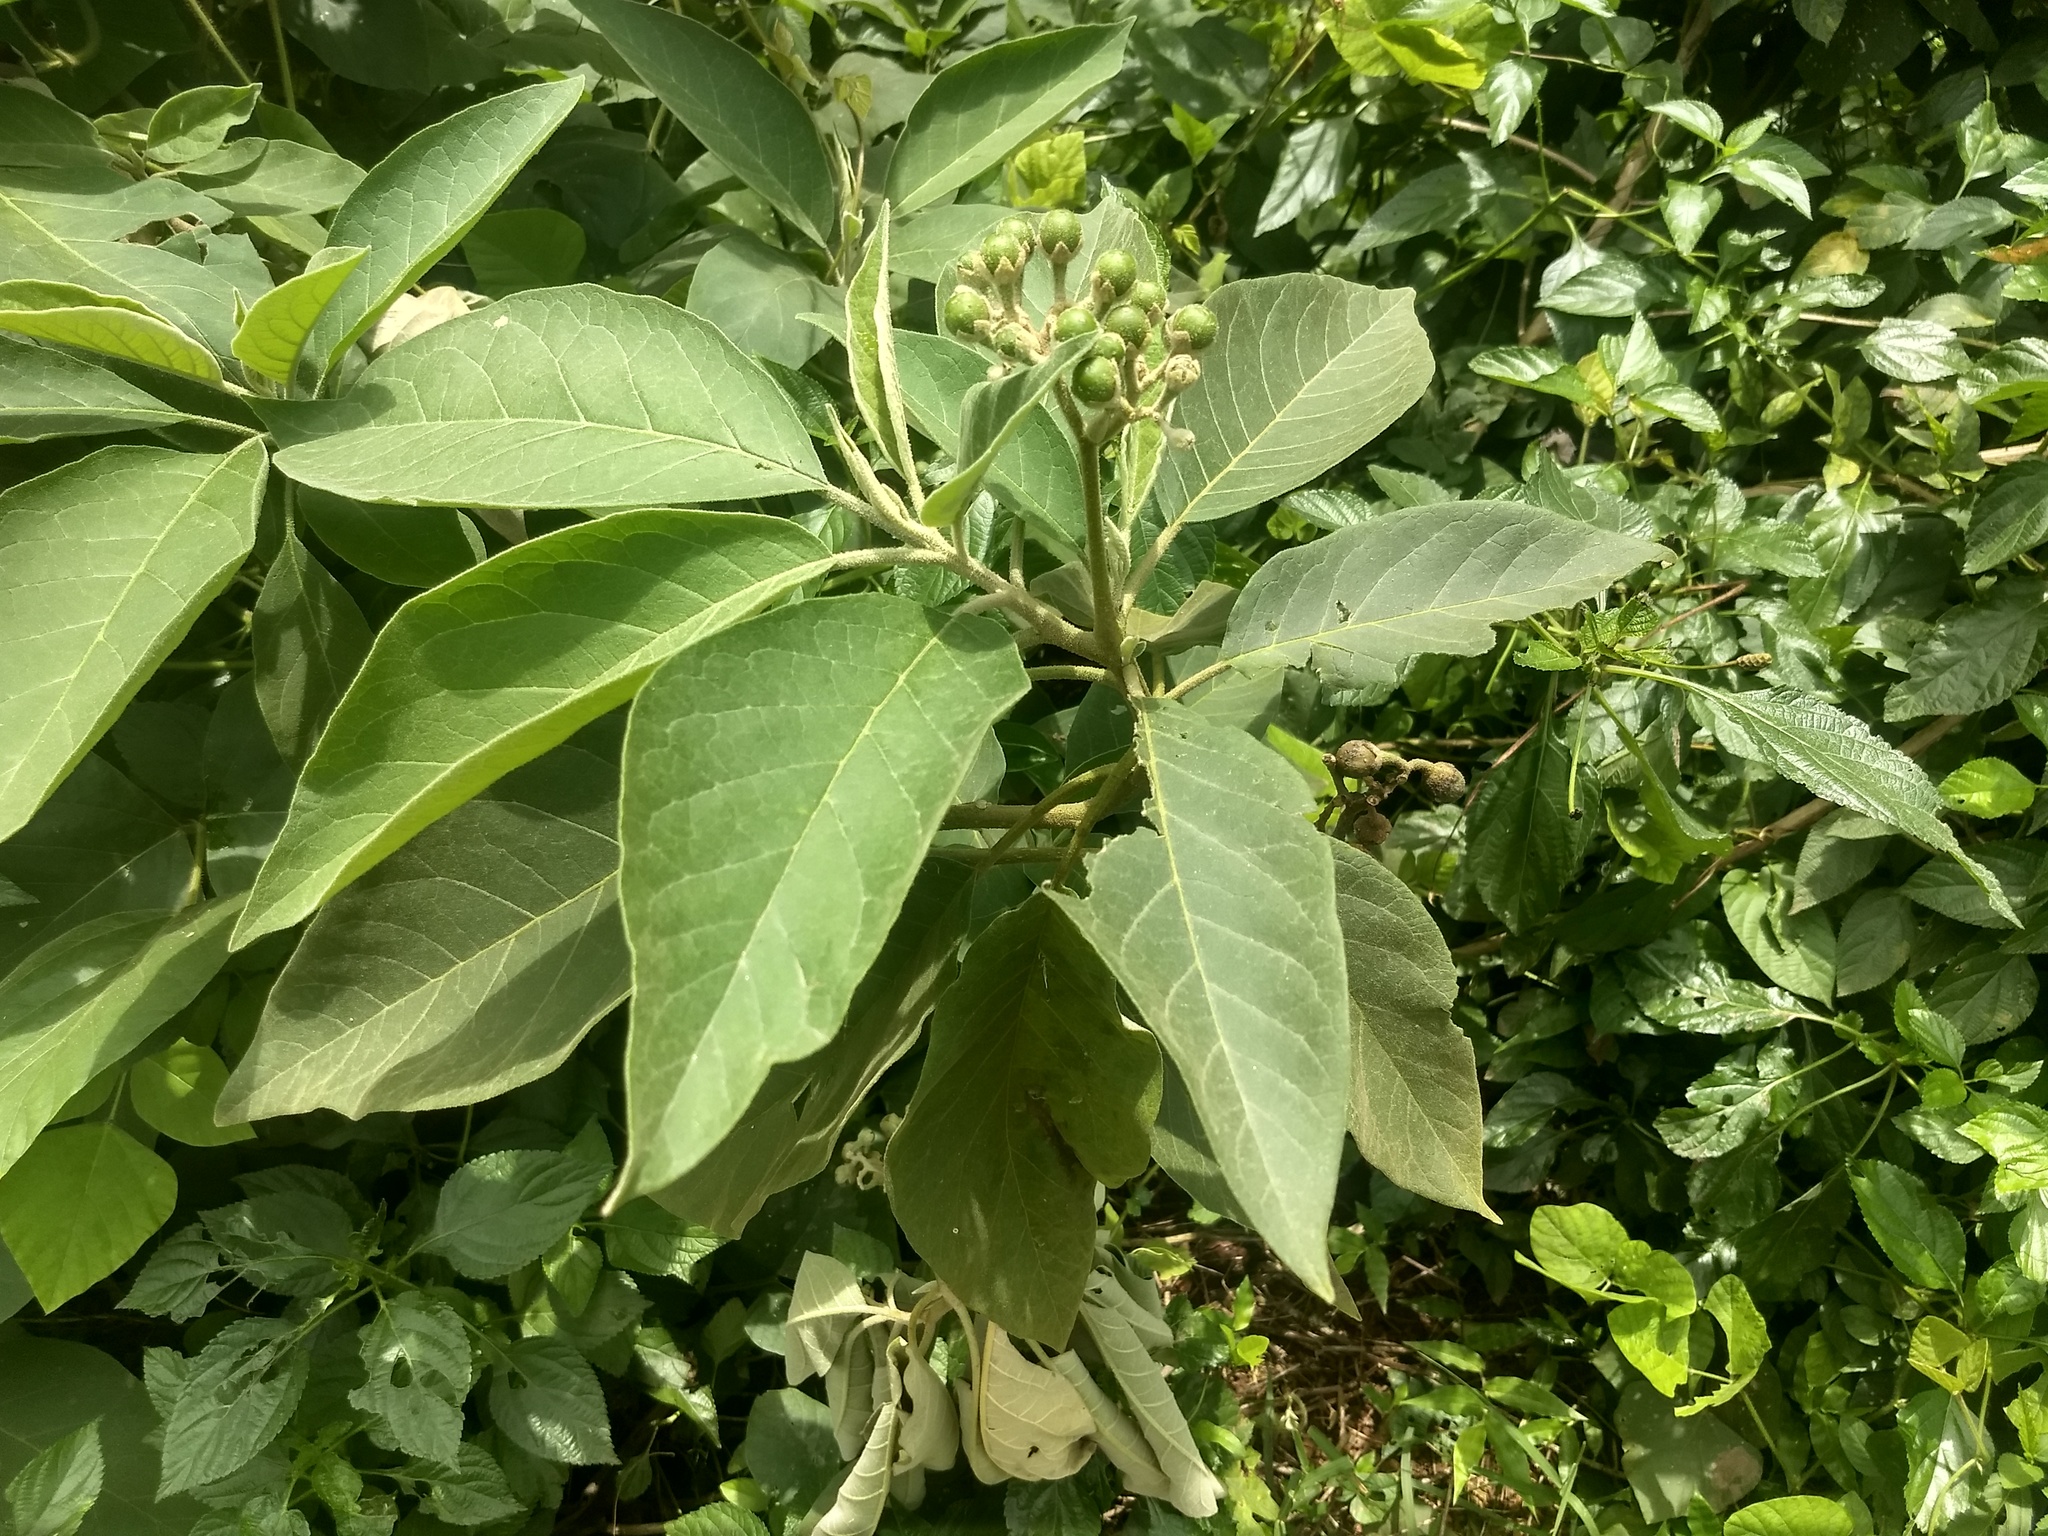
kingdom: Plantae
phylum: Tracheophyta
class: Magnoliopsida
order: Solanales
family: Solanaceae
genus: Solanum
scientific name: Solanum erianthum
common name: Tobacco-tree
